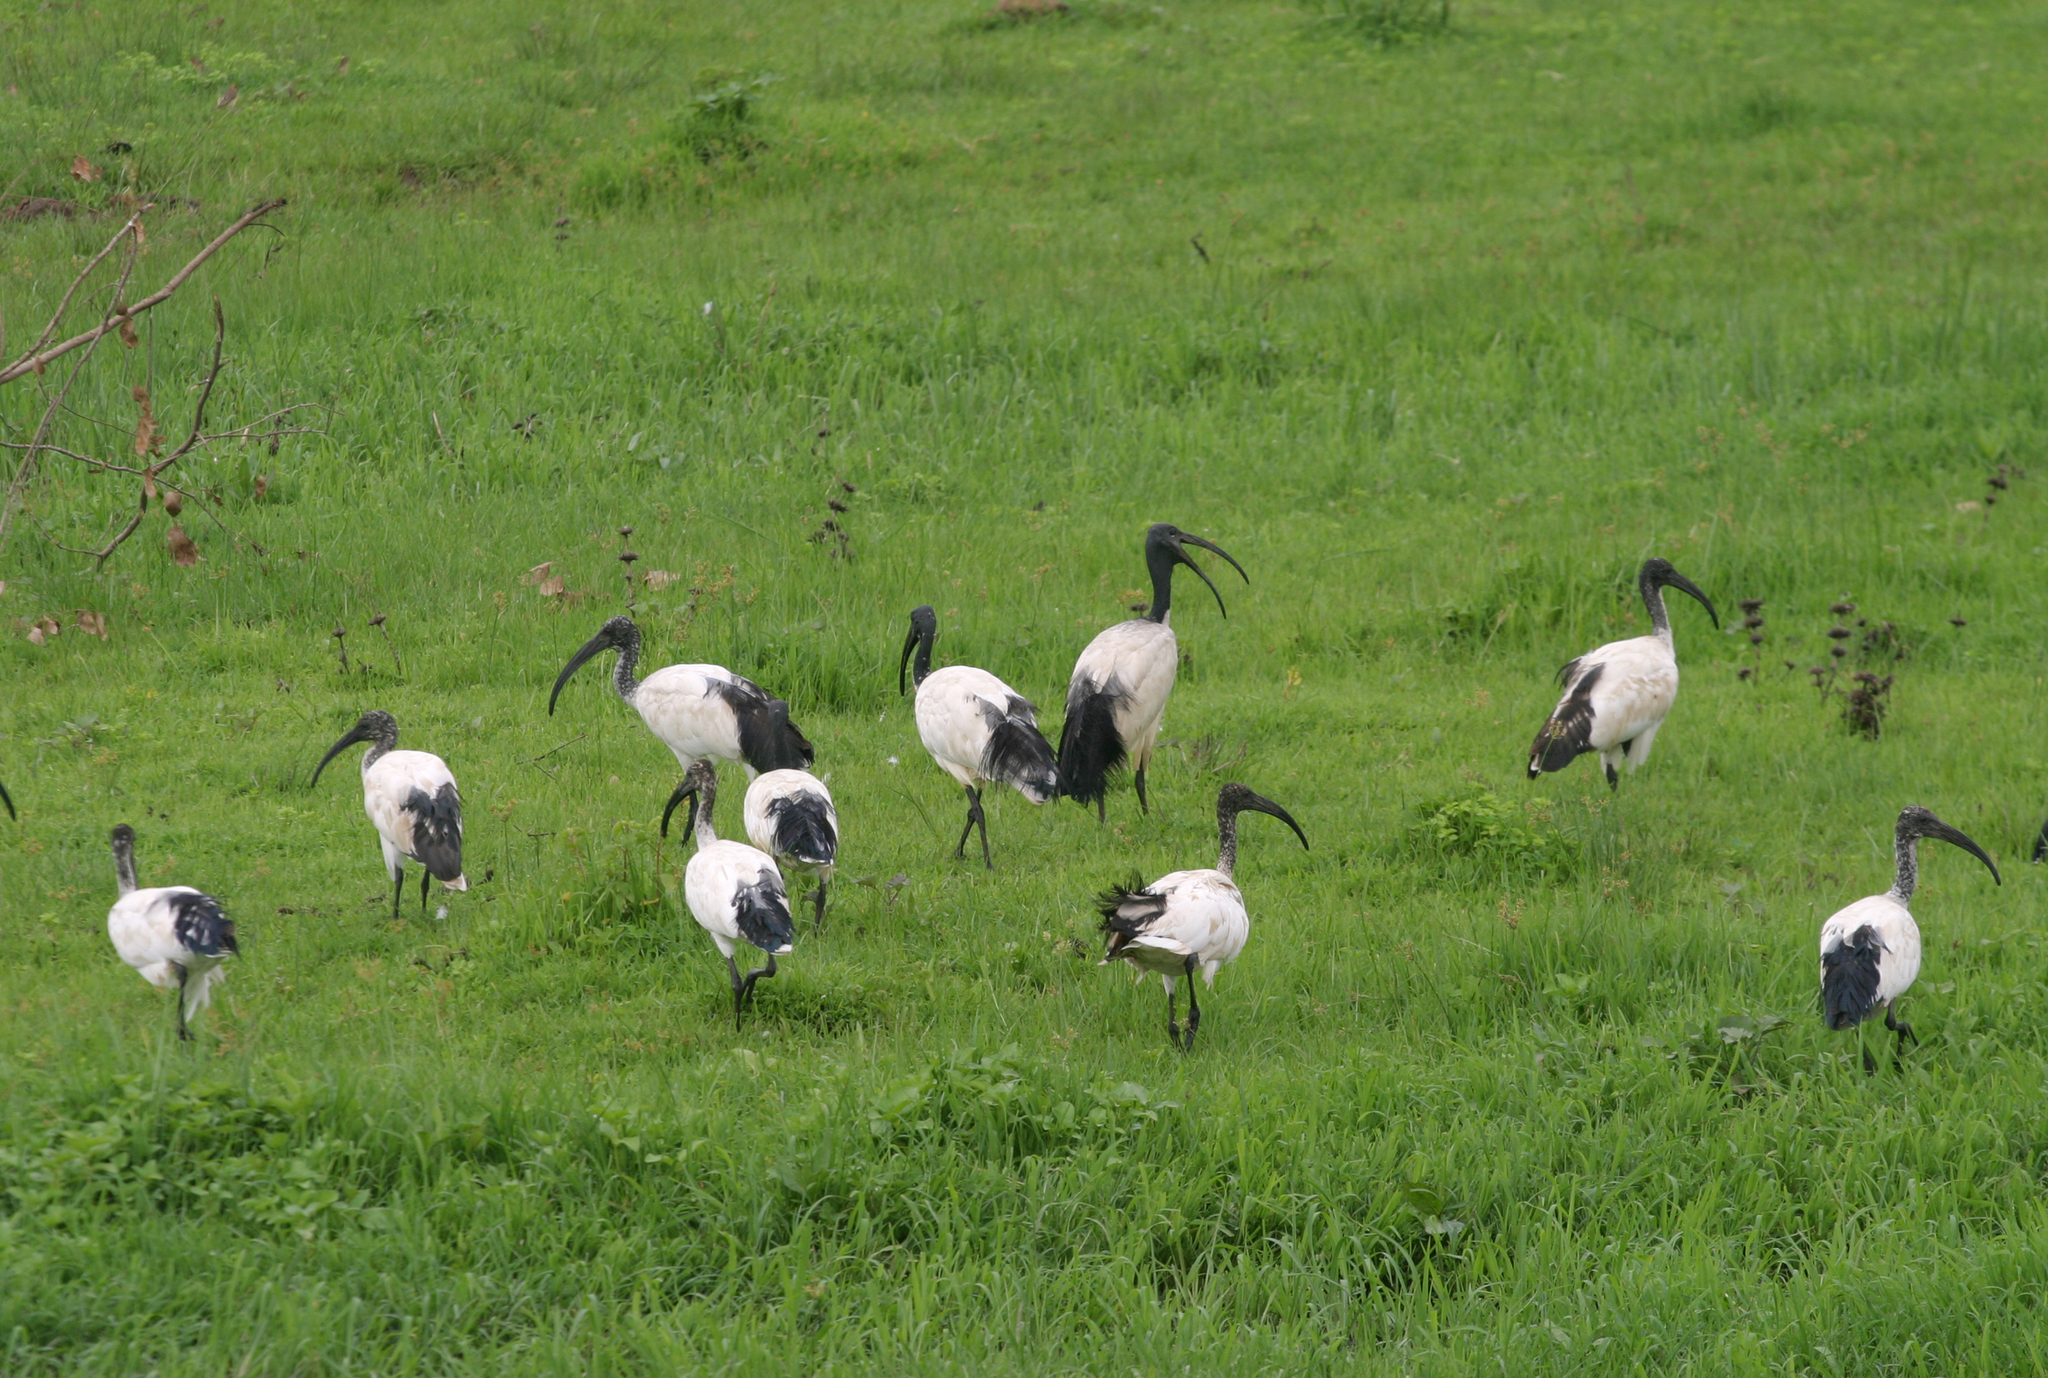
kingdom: Animalia
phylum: Chordata
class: Aves
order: Pelecaniformes
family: Threskiornithidae
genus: Threskiornis
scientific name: Threskiornis aethiopicus
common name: Sacred ibis
